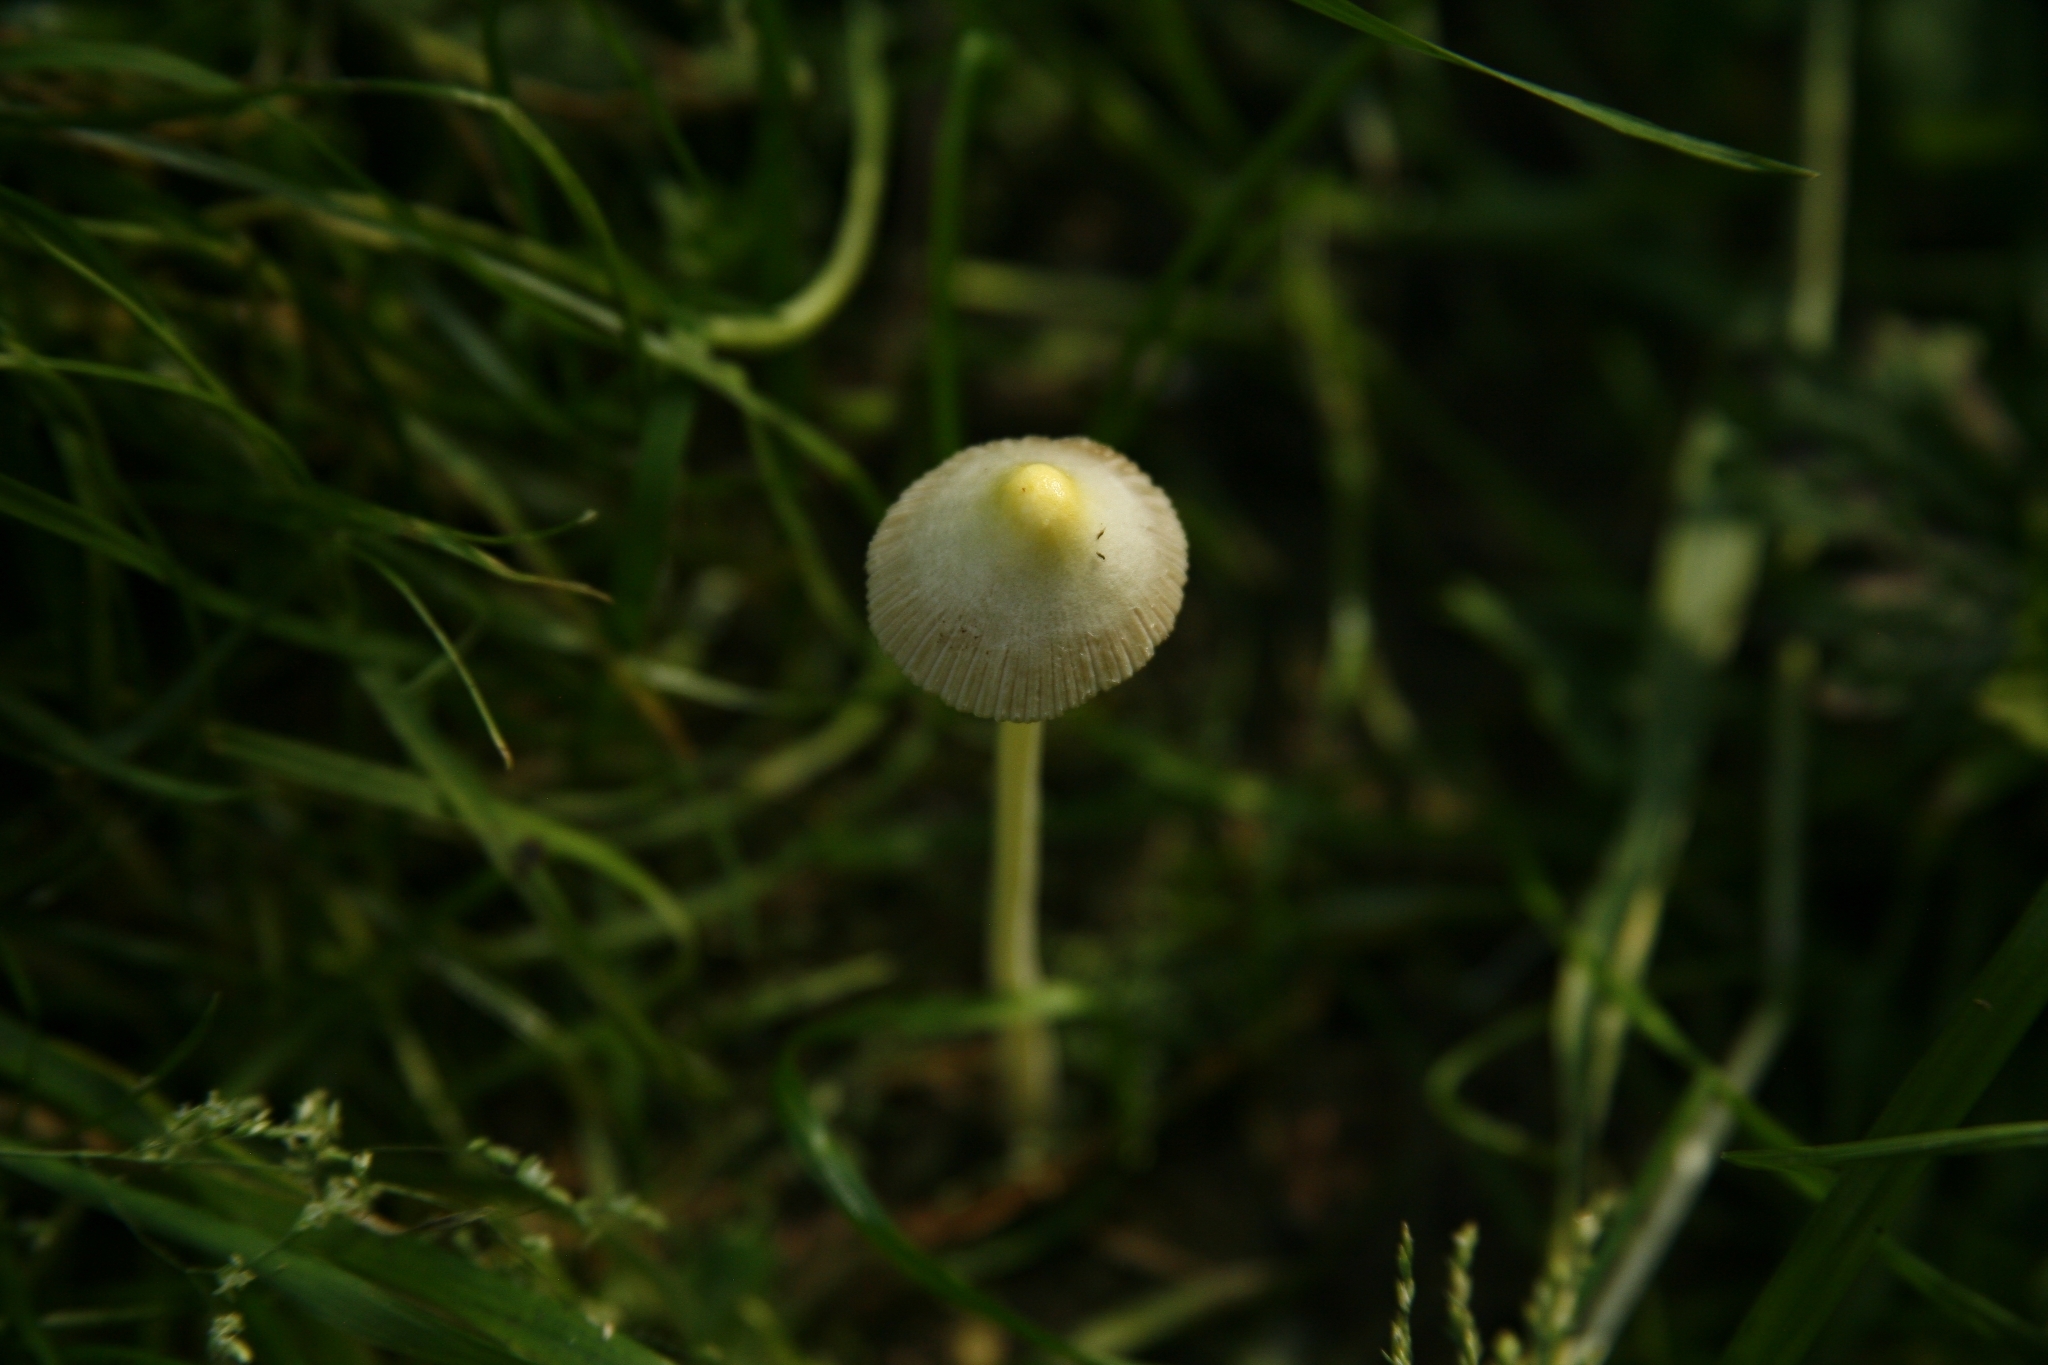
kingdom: Fungi
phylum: Basidiomycota
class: Agaricomycetes
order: Agaricales
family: Bolbitiaceae
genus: Bolbitius
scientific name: Bolbitius titubans
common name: Yellow fieldcap
